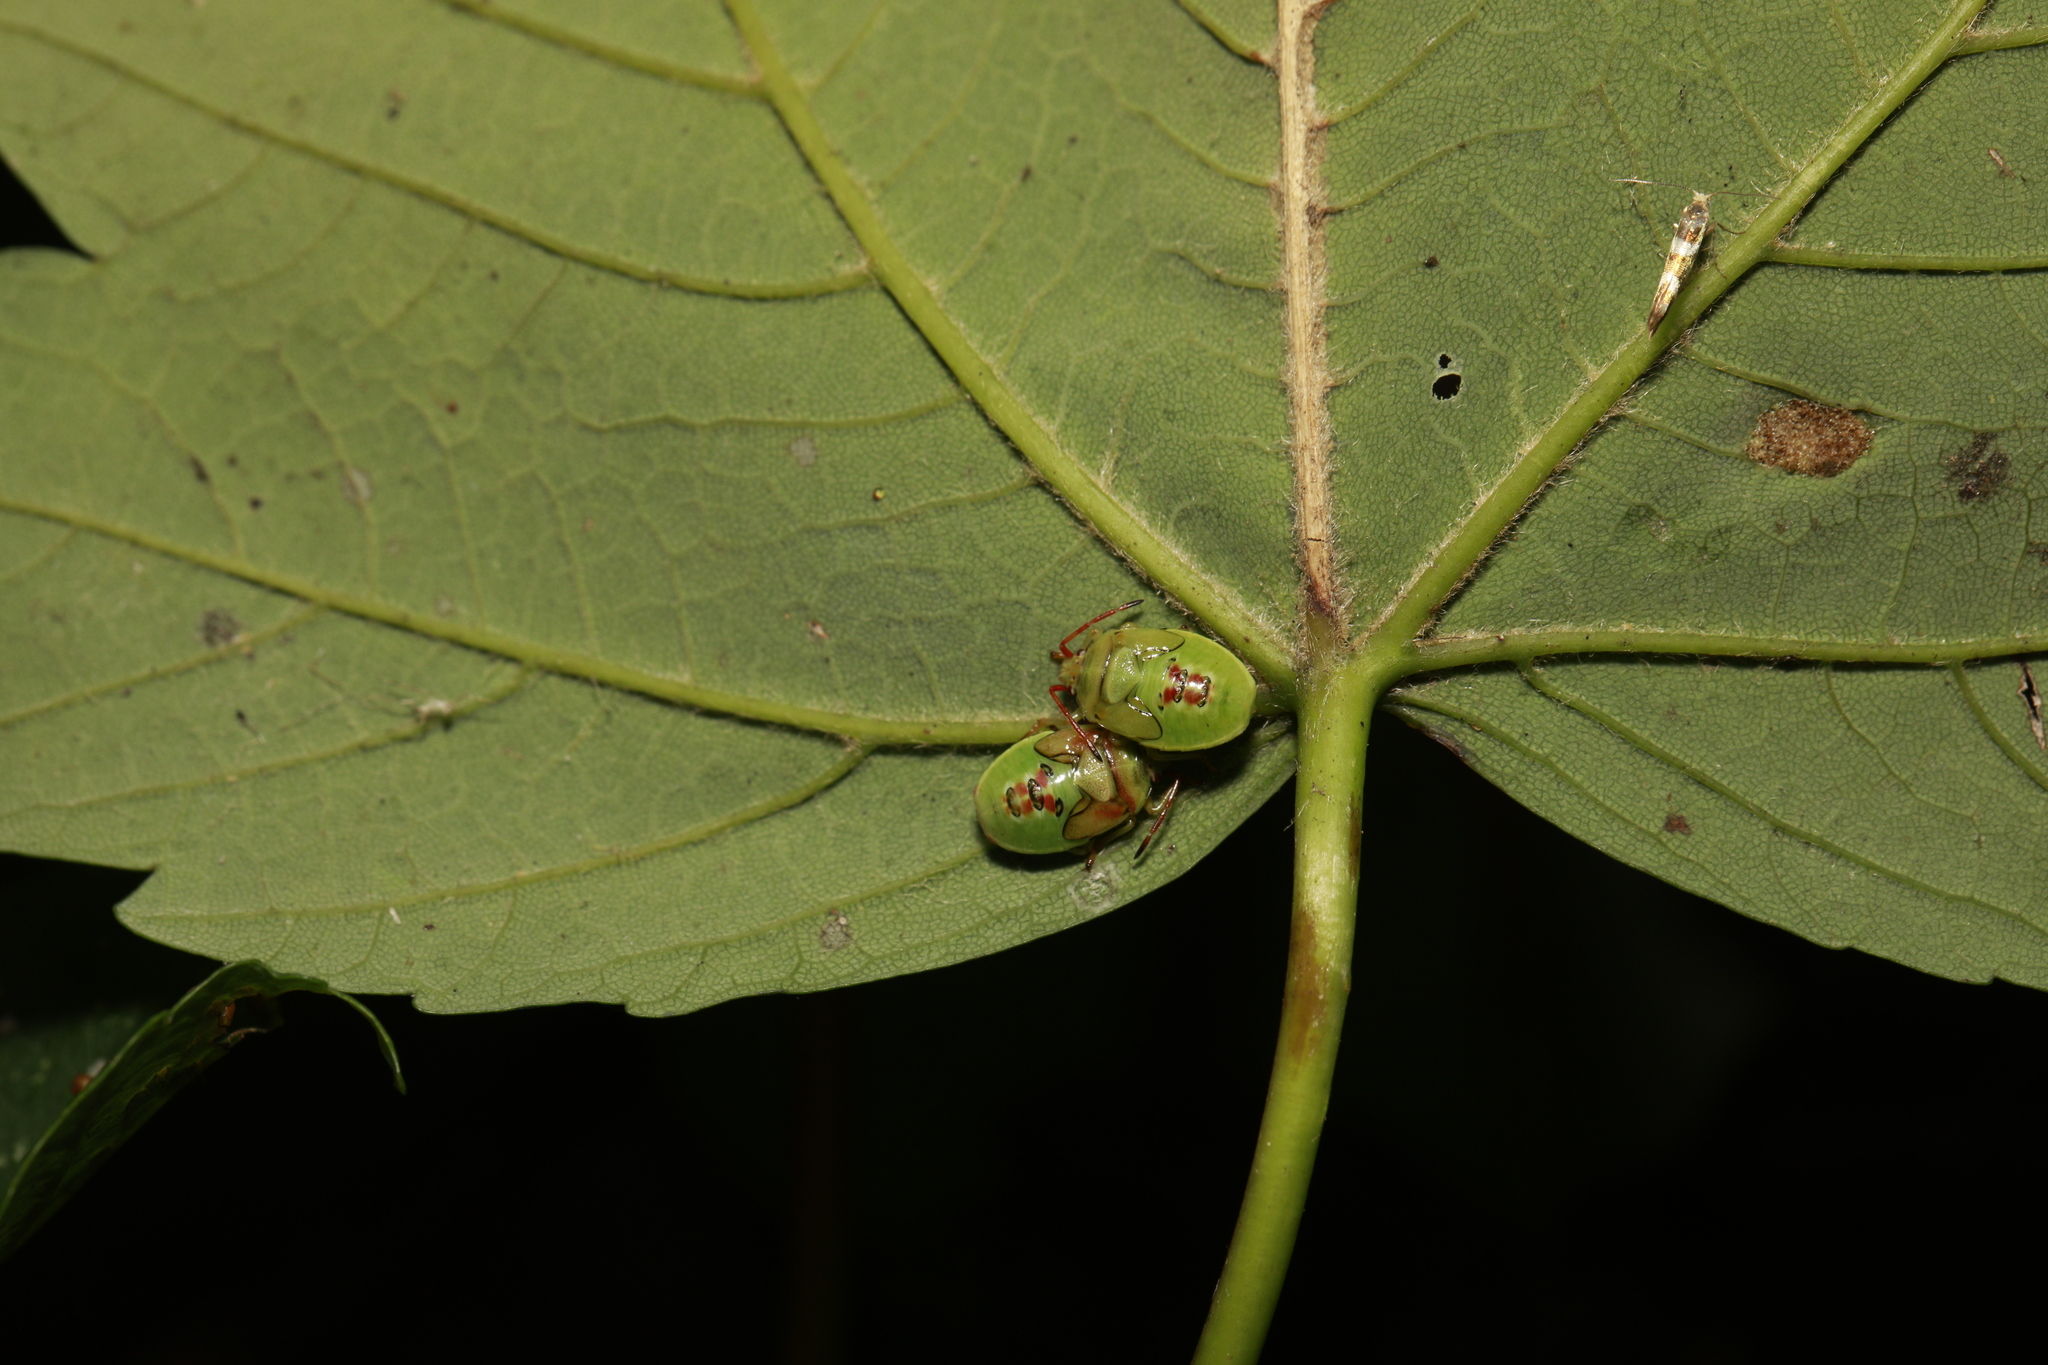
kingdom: Animalia
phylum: Arthropoda
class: Insecta
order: Hemiptera
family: Acanthosomatidae
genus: Elasmostethus
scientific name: Elasmostethus interstinctus
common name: Birch shieldbug
